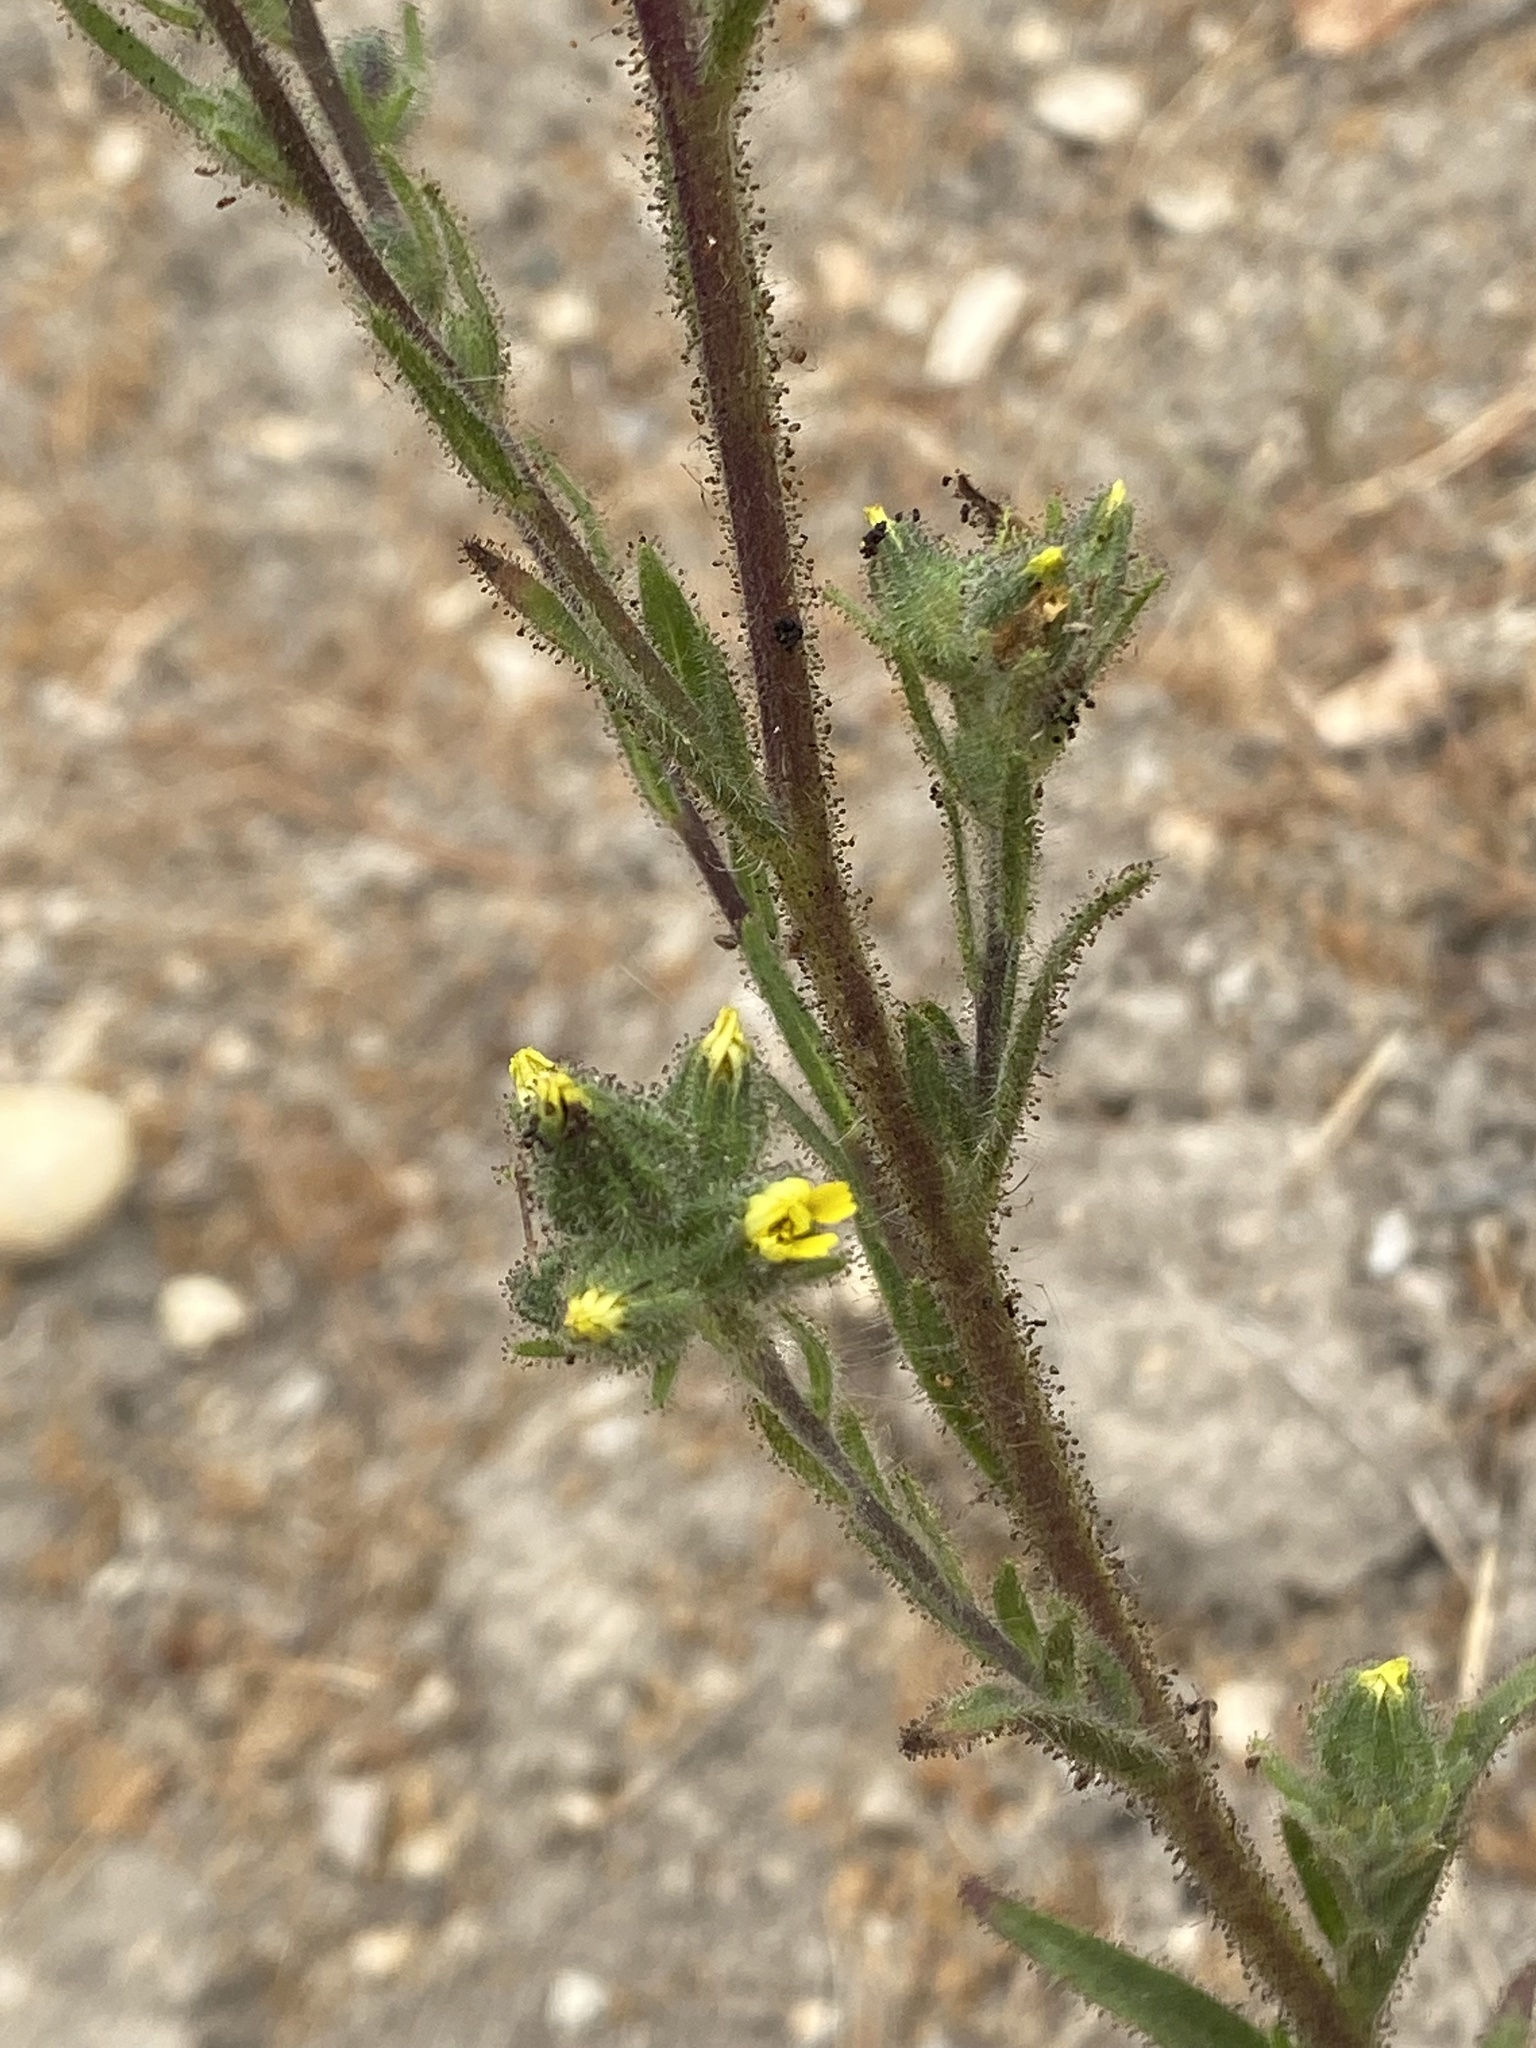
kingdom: Plantae
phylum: Tracheophyta
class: Magnoliopsida
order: Asterales
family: Asteraceae
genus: Madia
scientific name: Madia sativa
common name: Coast tarweed
